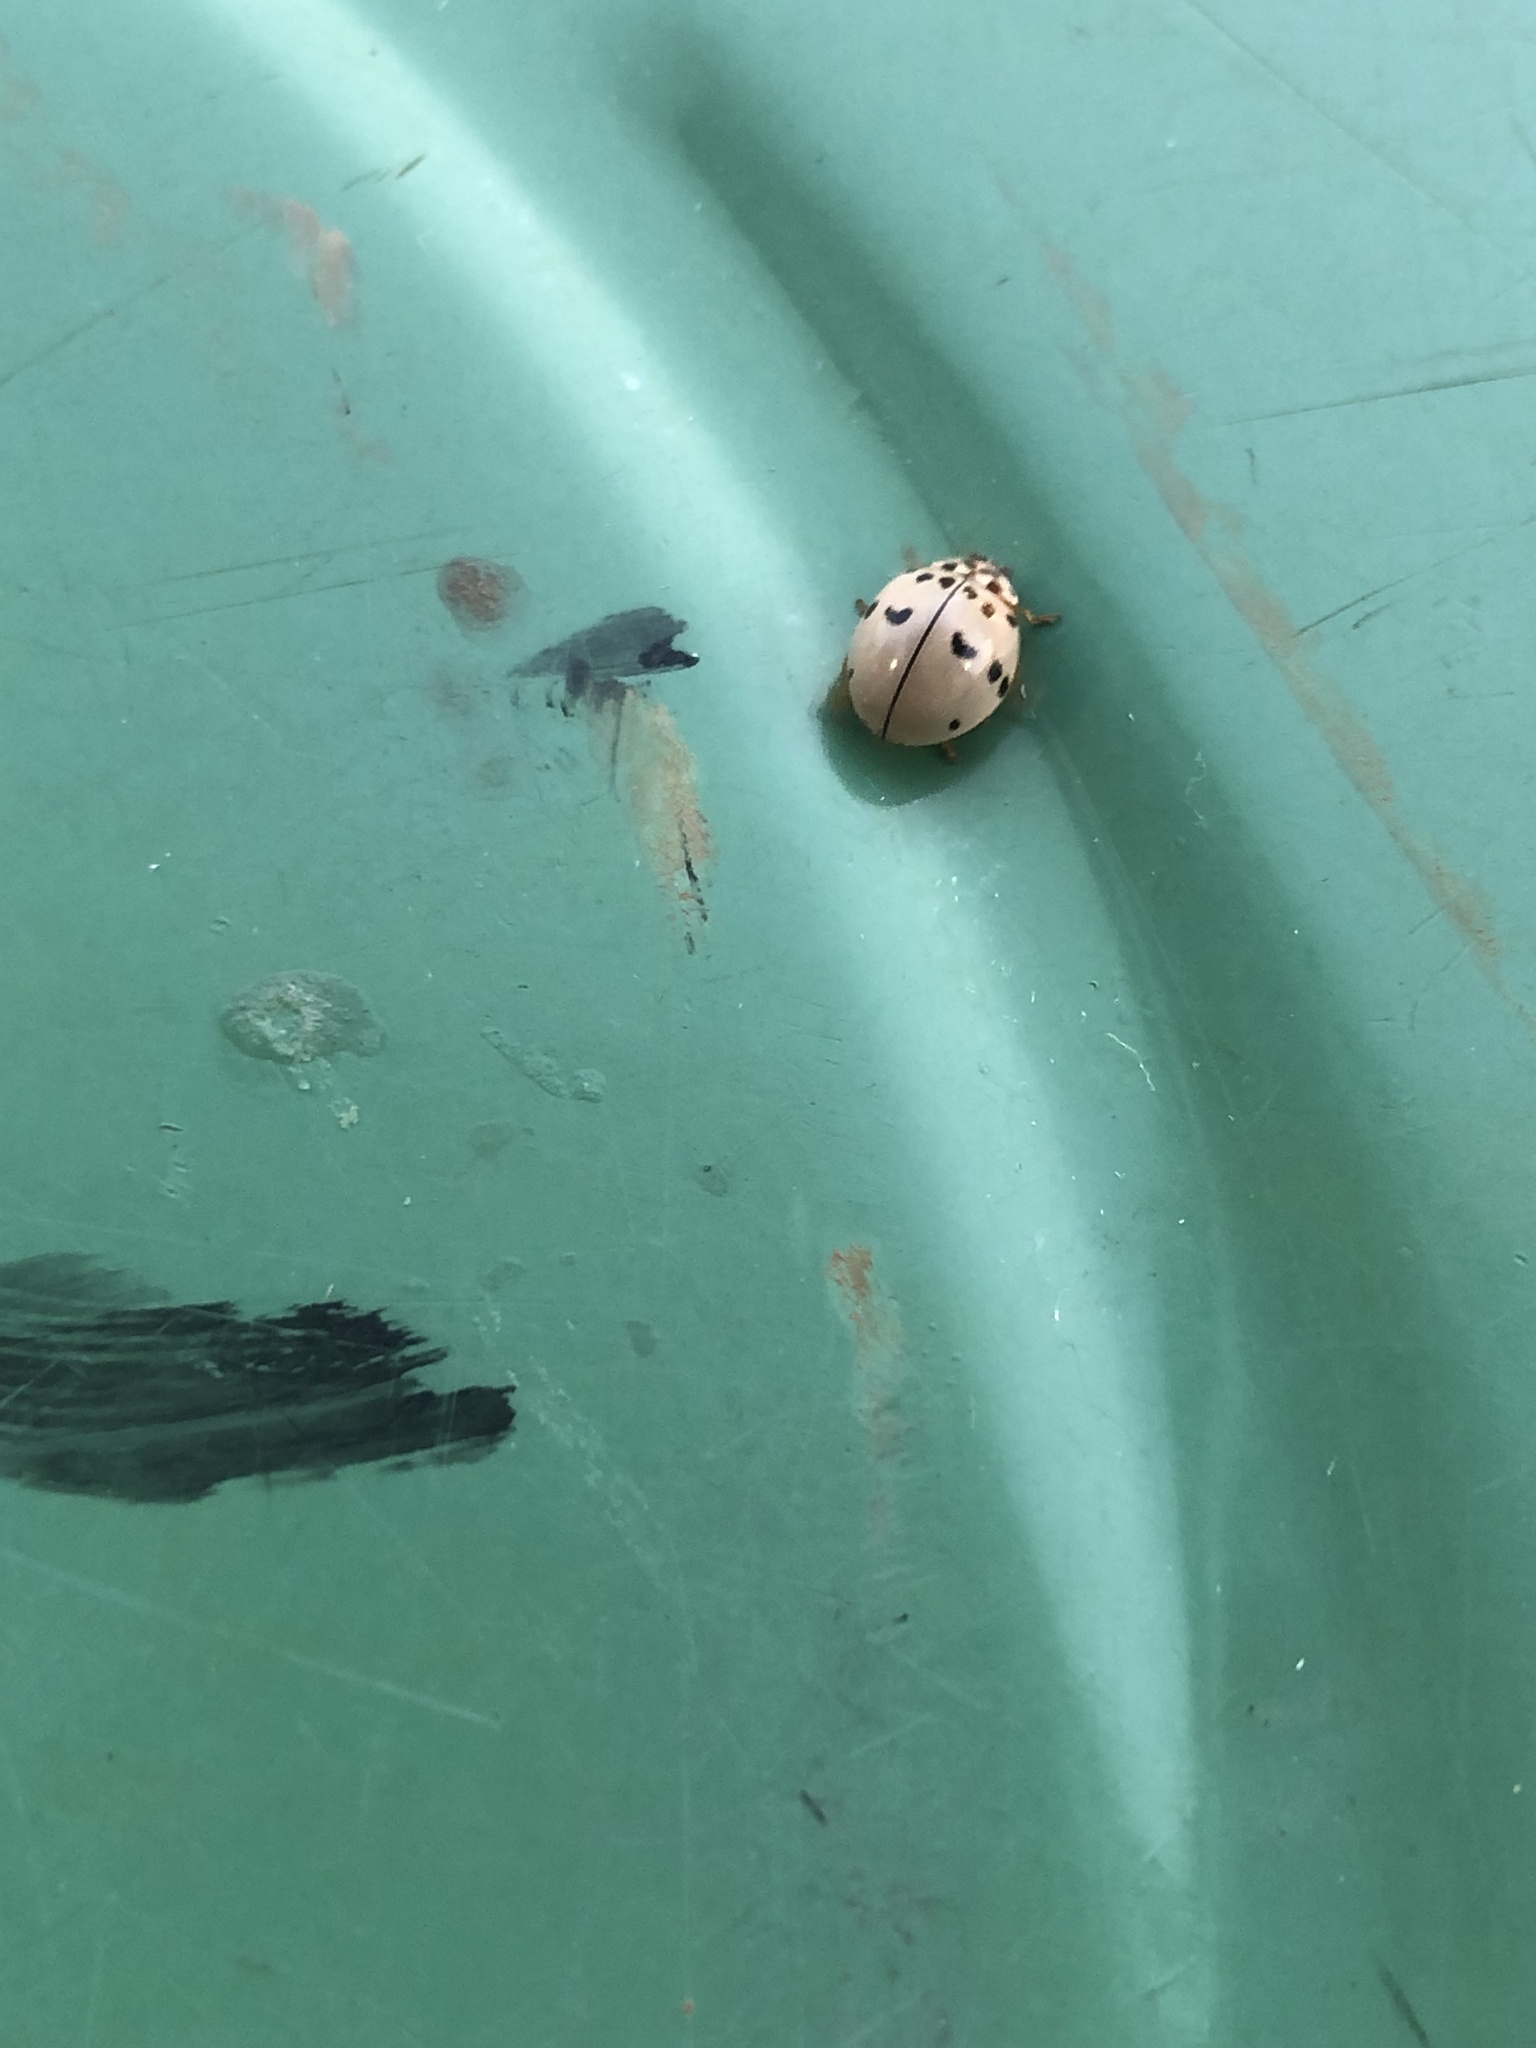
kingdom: Animalia
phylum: Arthropoda
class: Insecta
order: Coleoptera
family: Coccinellidae
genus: Olla
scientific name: Olla v-nigrum
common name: Ashy gray lady beetle
